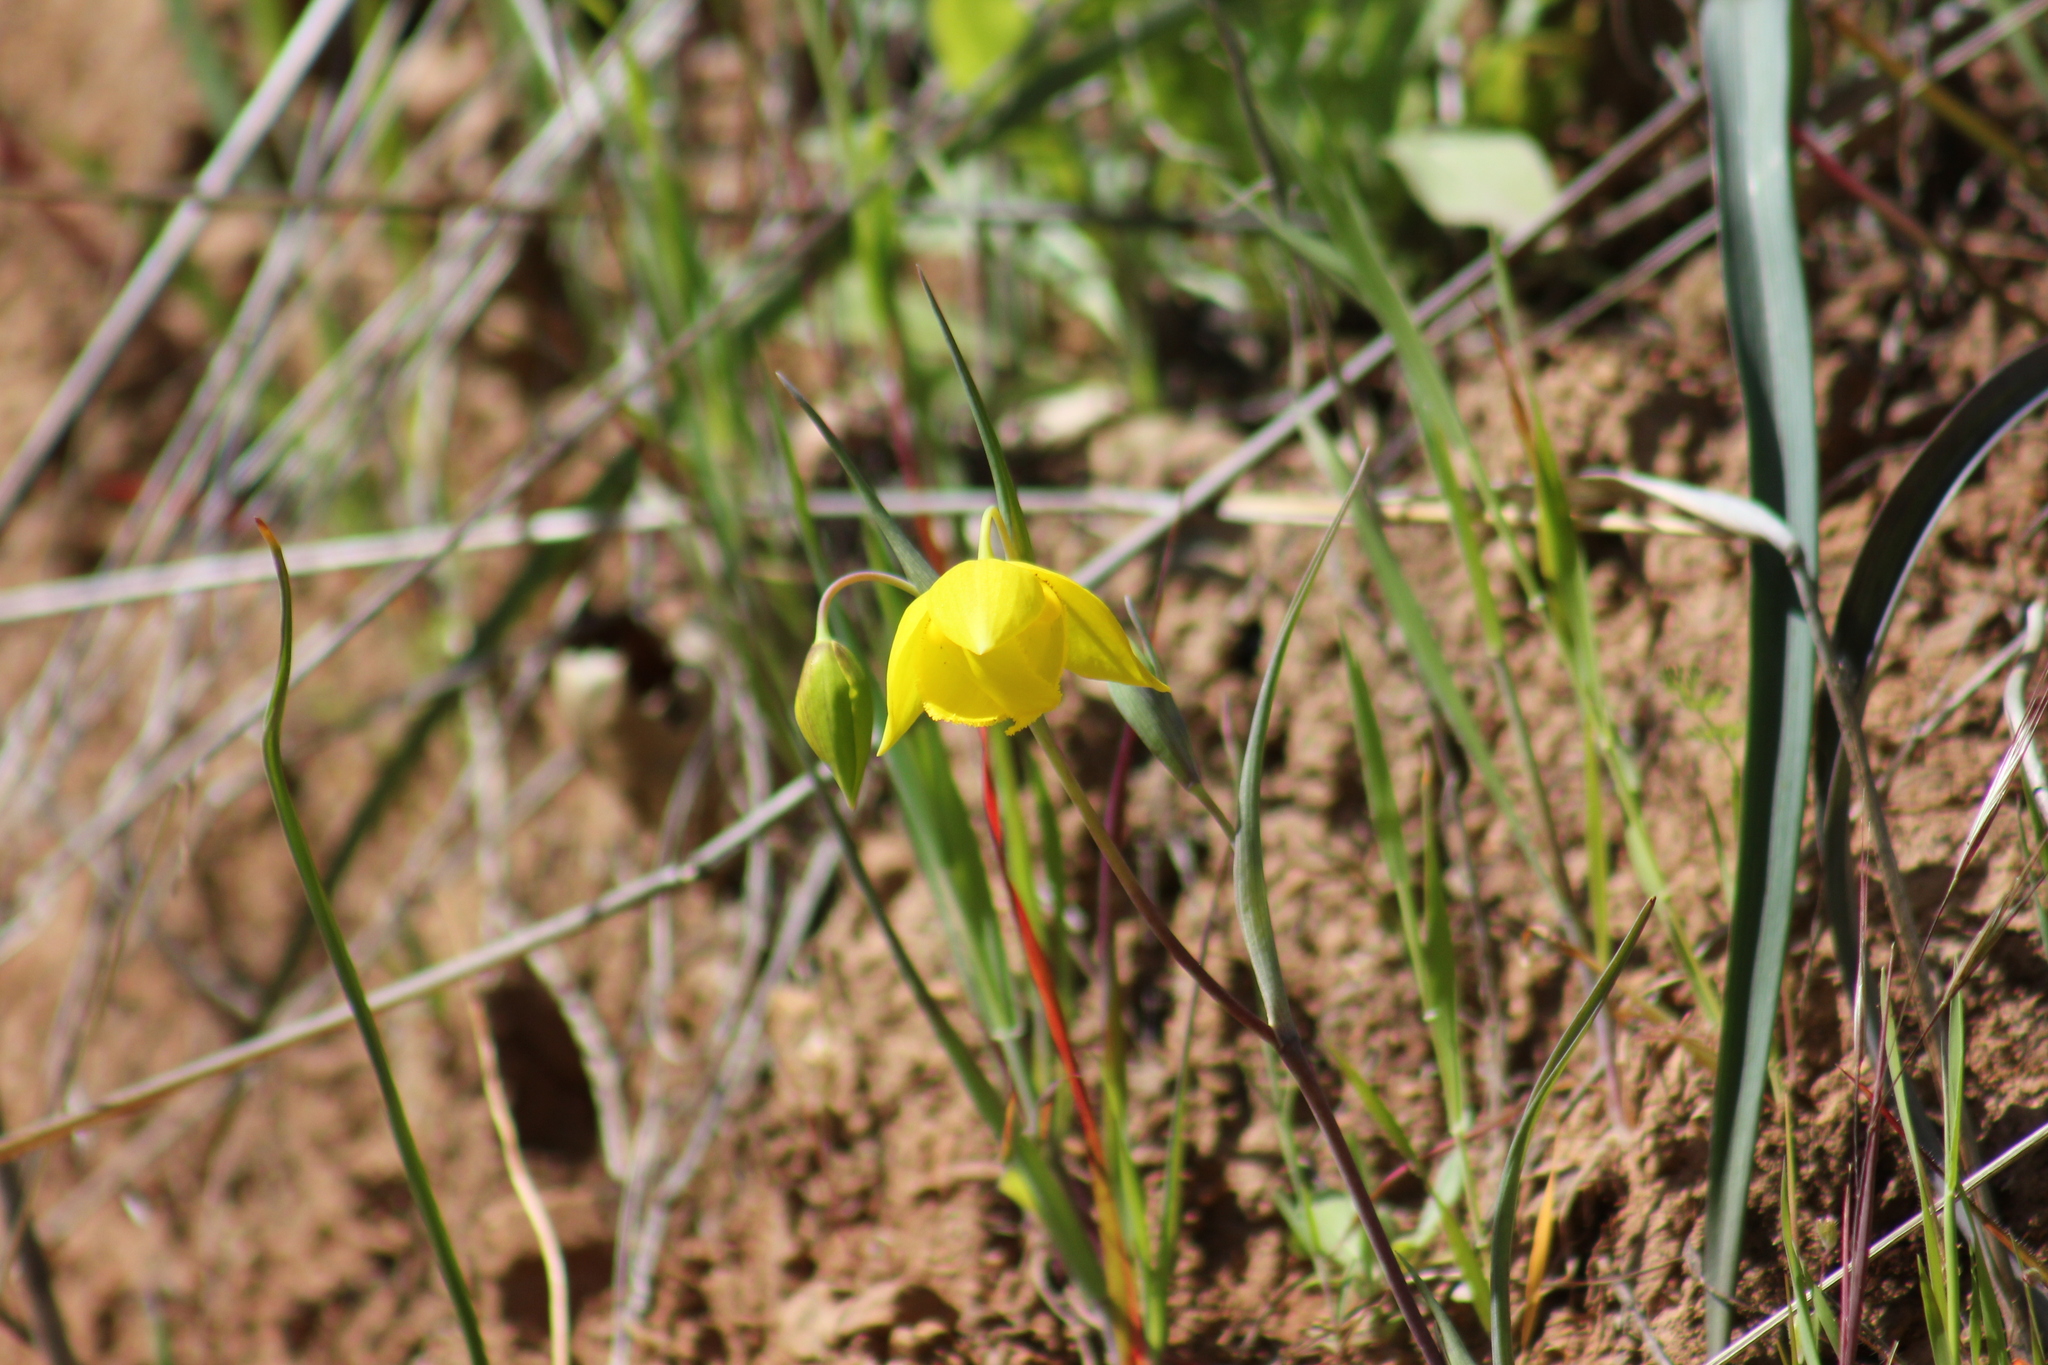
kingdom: Plantae
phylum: Tracheophyta
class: Liliopsida
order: Liliales
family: Liliaceae
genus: Calochortus
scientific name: Calochortus amabilis
